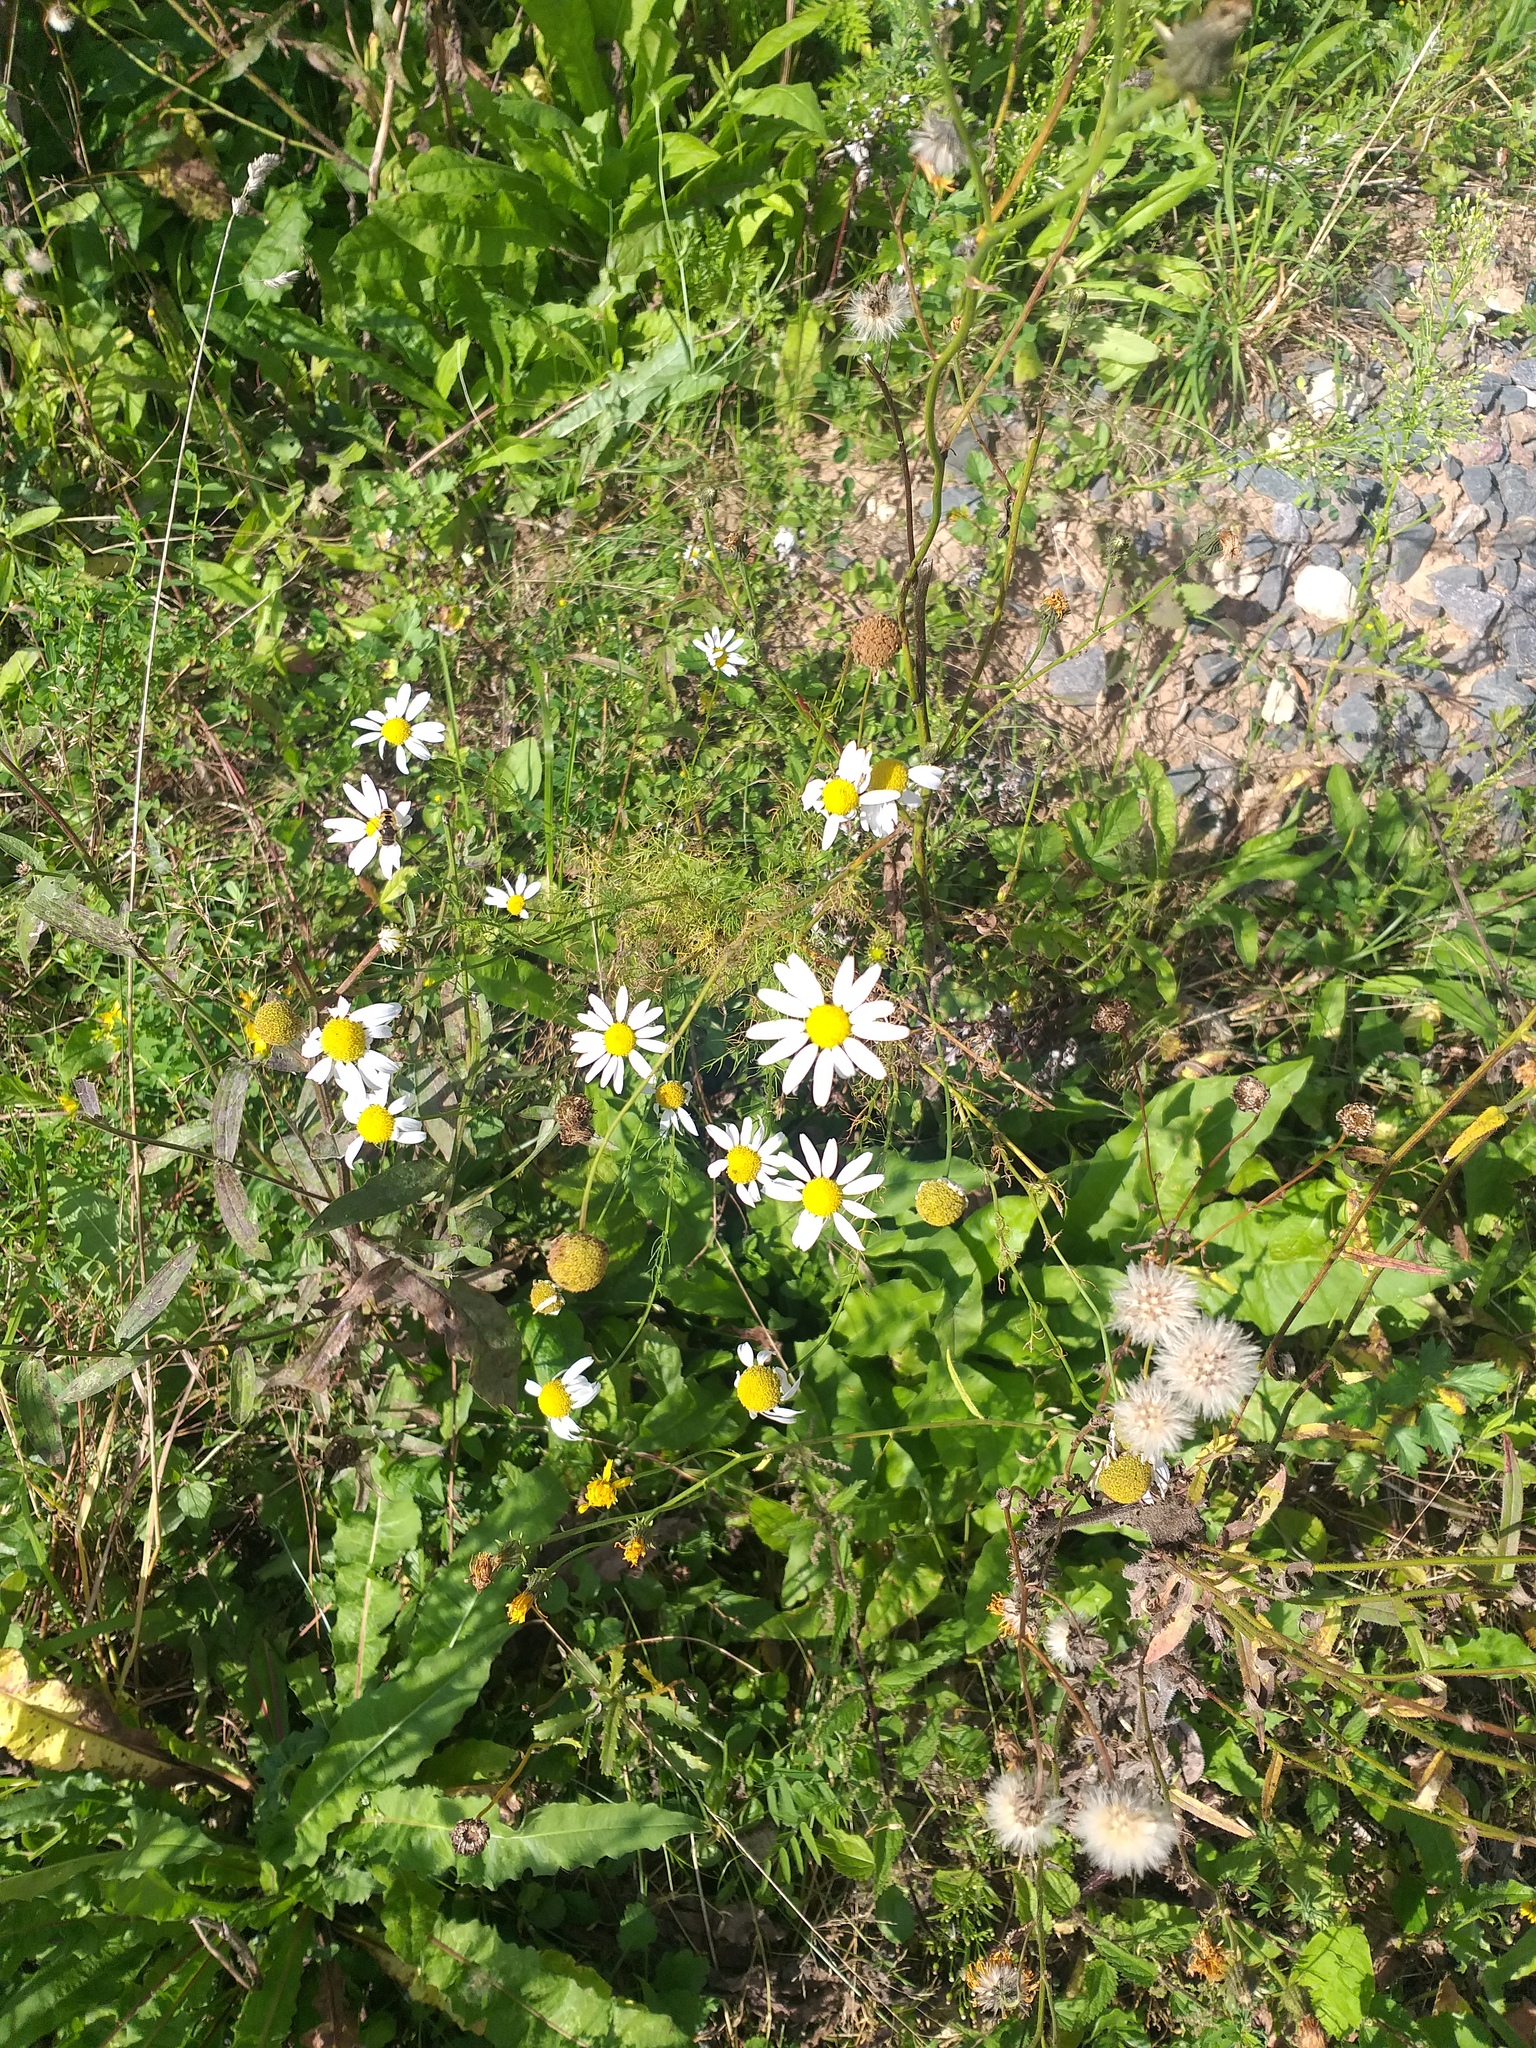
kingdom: Plantae
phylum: Tracheophyta
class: Magnoliopsida
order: Asterales
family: Asteraceae
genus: Tripleurospermum
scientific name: Tripleurospermum inodorum
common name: Scentless mayweed
